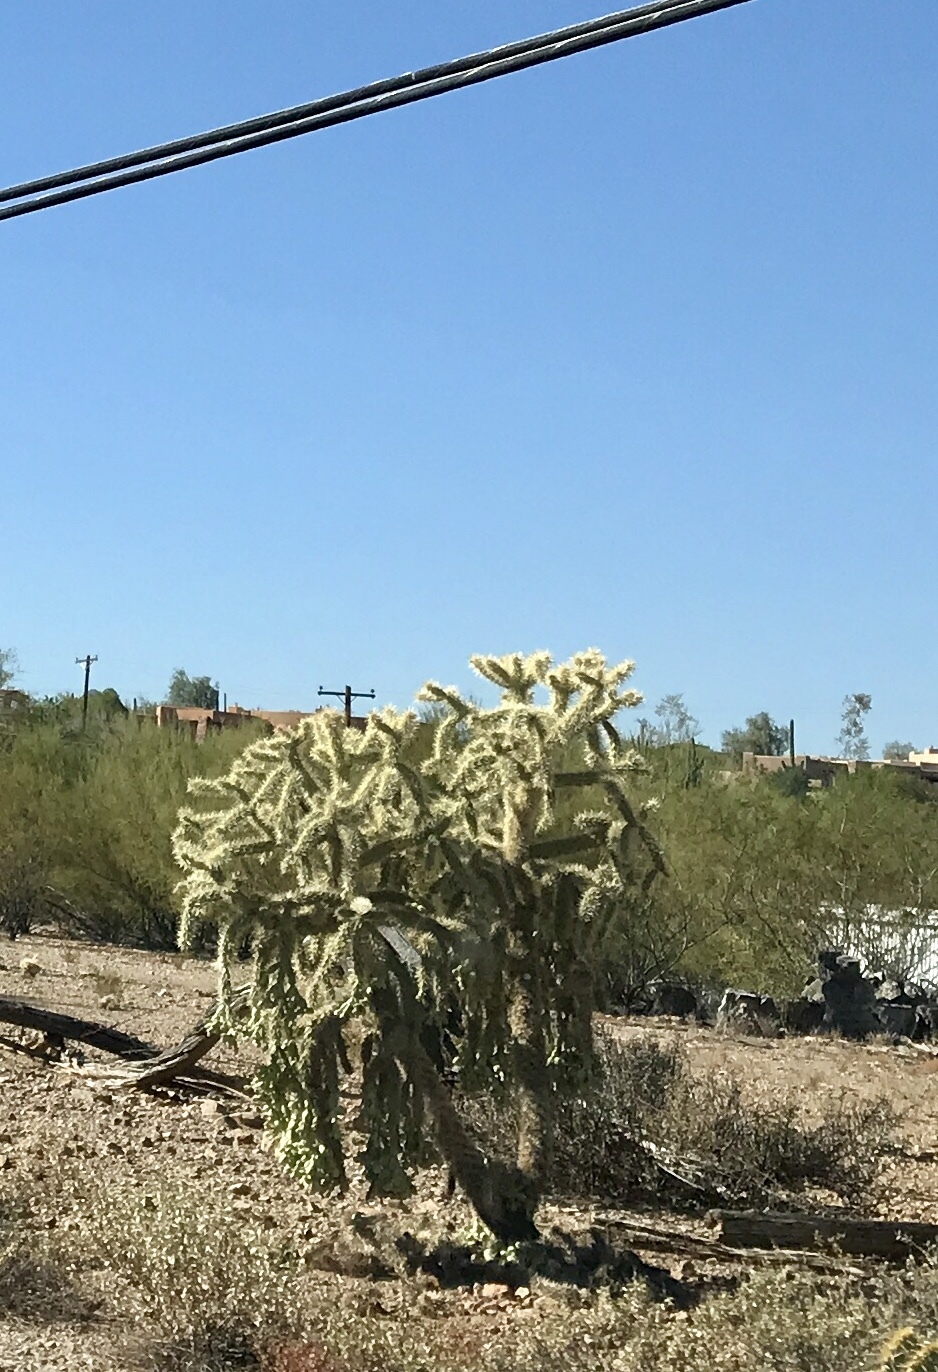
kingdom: Plantae
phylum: Tracheophyta
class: Magnoliopsida
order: Caryophyllales
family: Cactaceae
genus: Cylindropuntia
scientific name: Cylindropuntia fulgida
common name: Jumping cholla
